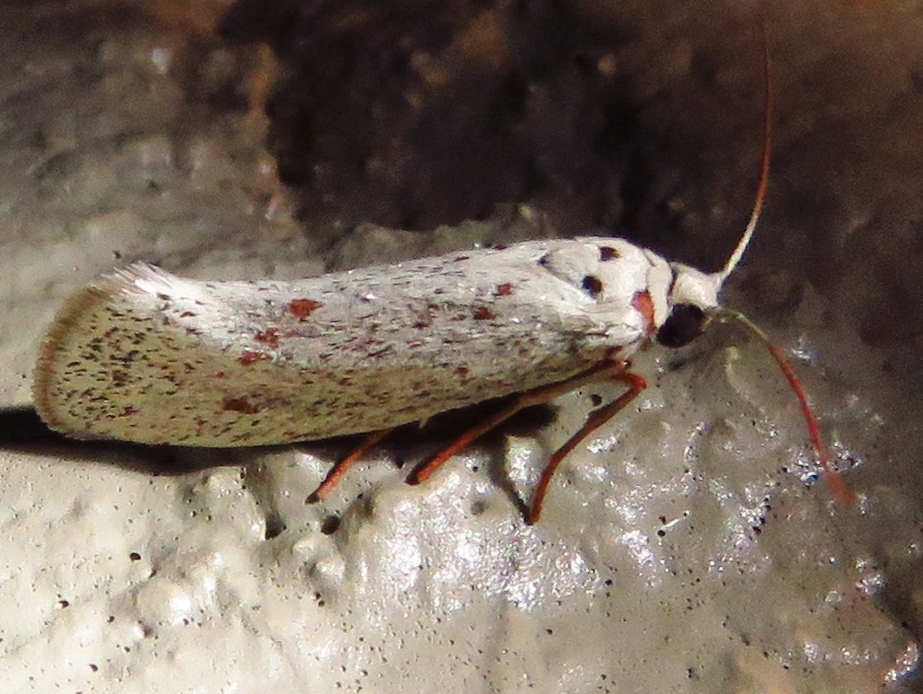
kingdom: Animalia
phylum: Arthropoda
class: Insecta
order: Lepidoptera
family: Lacturidae
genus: Lactura
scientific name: Lactura
